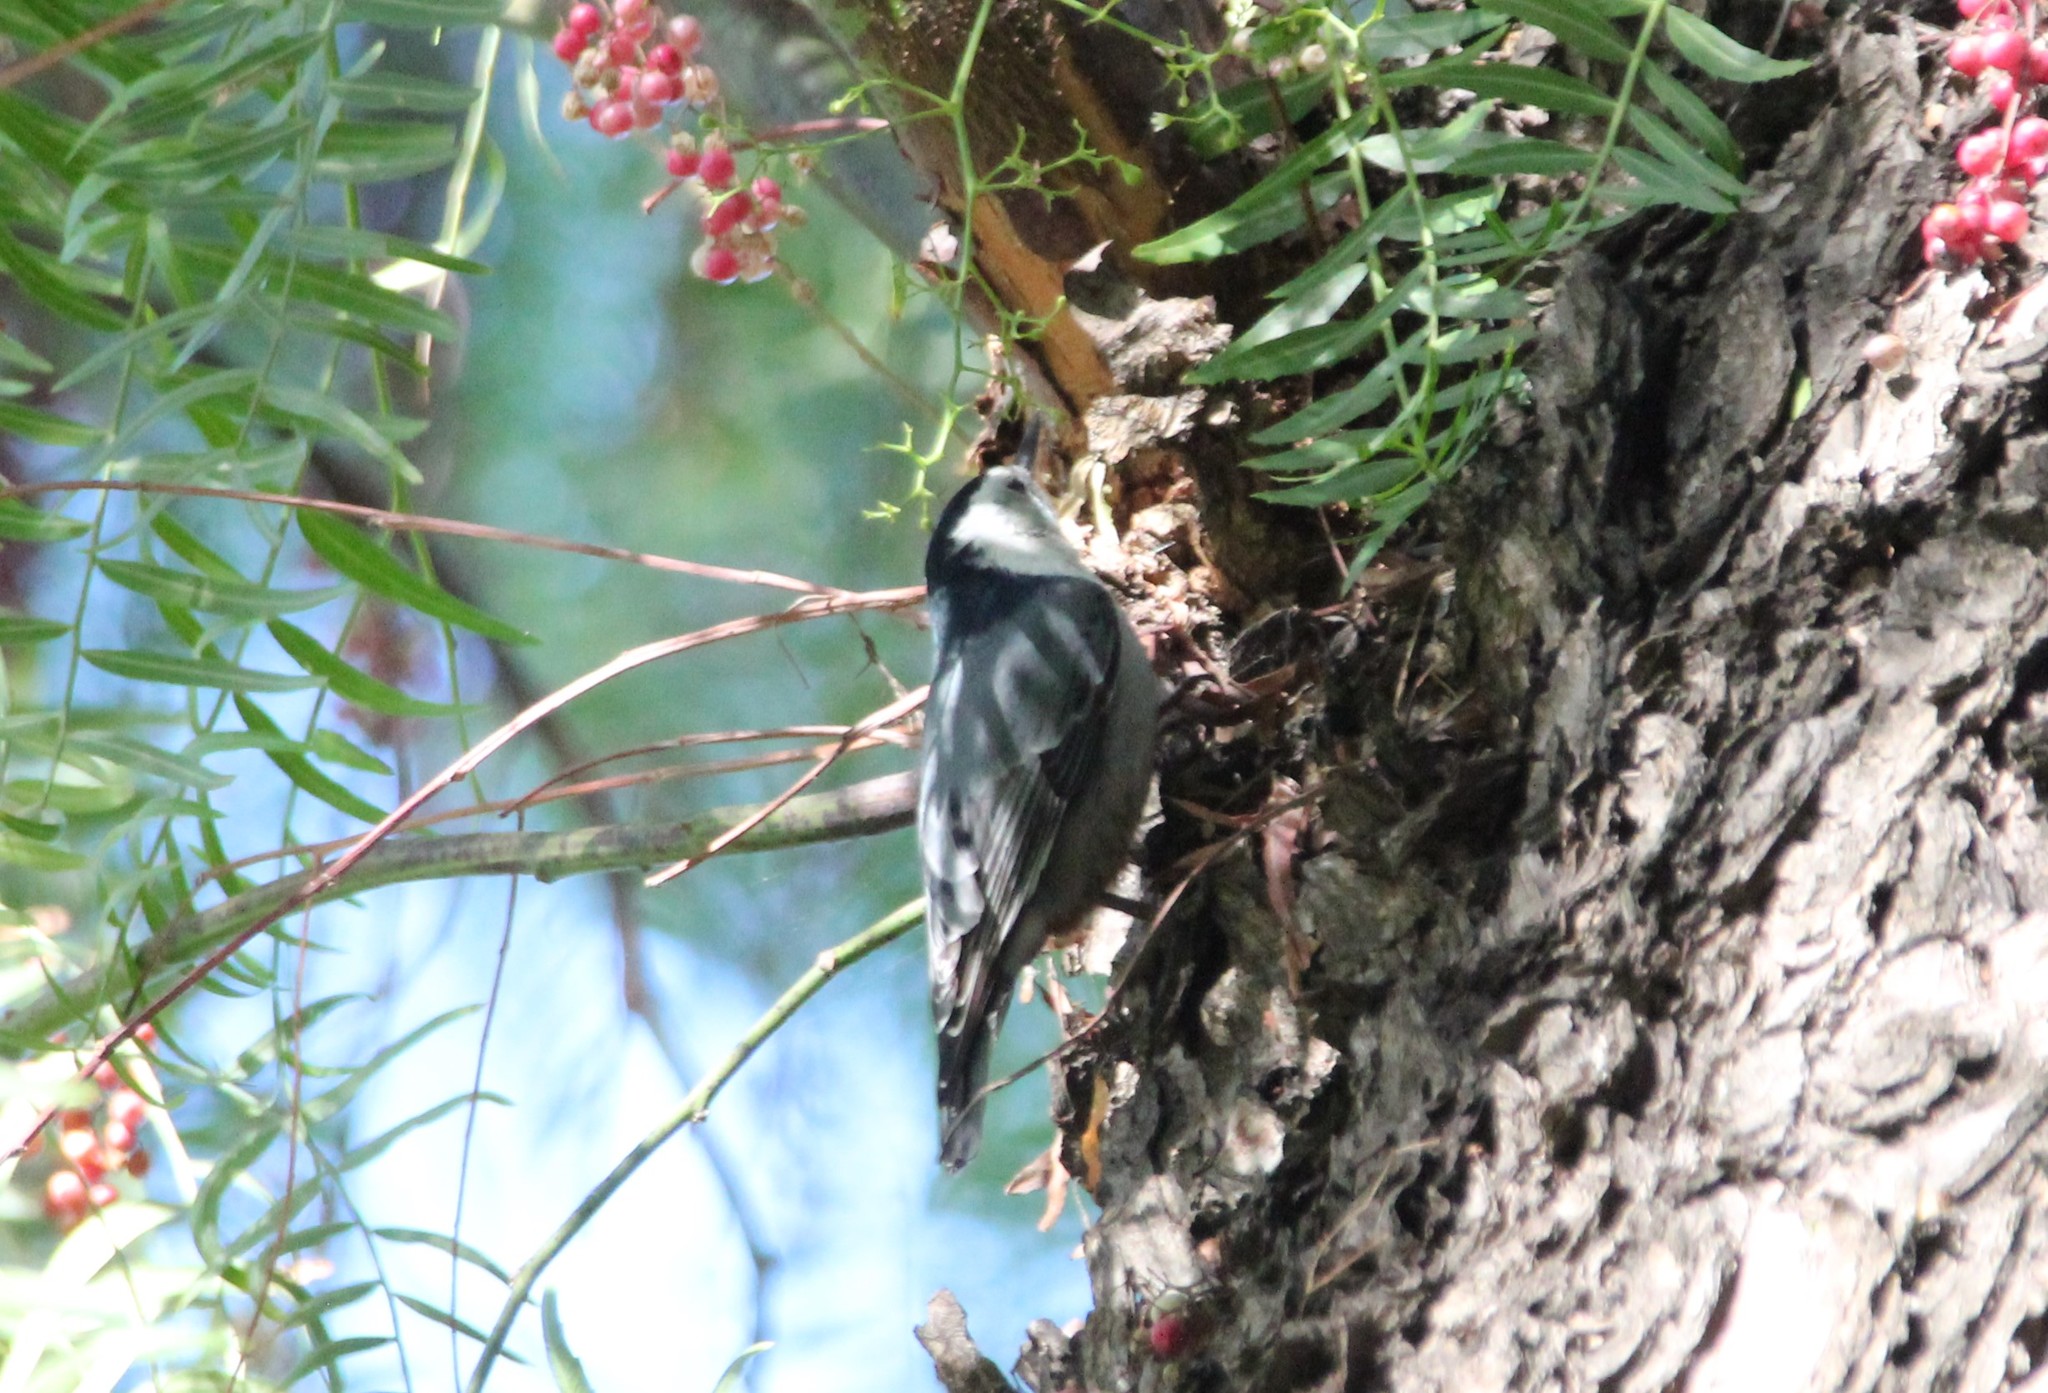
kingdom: Animalia
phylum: Chordata
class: Aves
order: Passeriformes
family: Sittidae
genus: Sitta
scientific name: Sitta carolinensis
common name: White-breasted nuthatch
